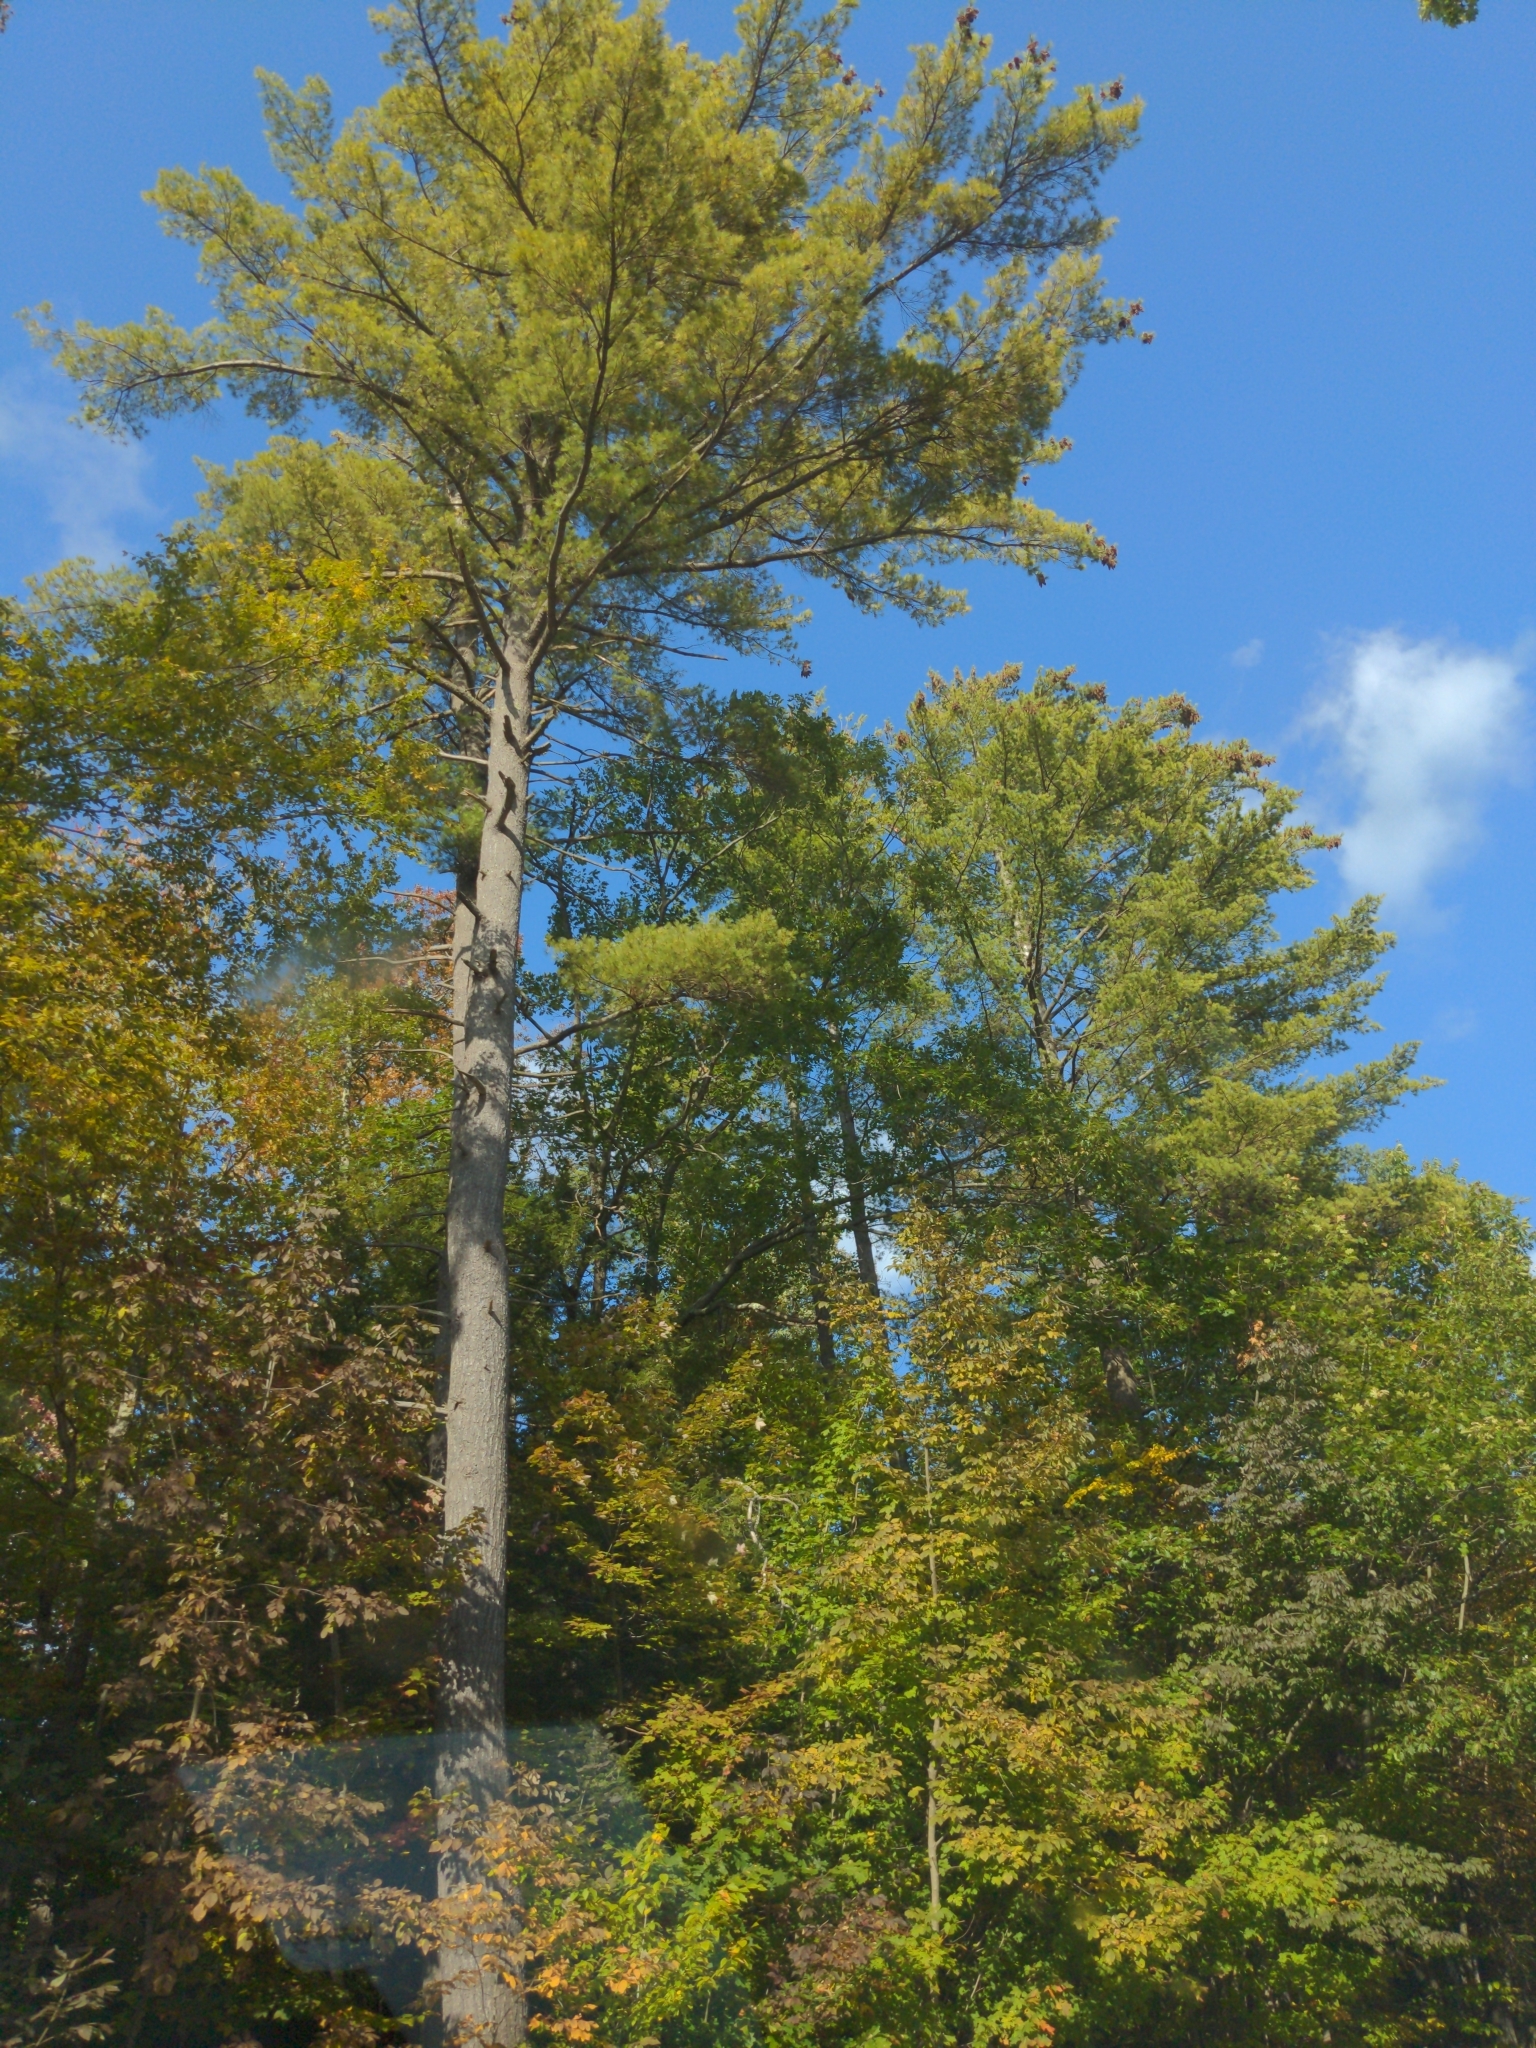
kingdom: Plantae
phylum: Tracheophyta
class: Pinopsida
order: Pinales
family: Pinaceae
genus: Pinus
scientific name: Pinus strobus
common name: Weymouth pine
